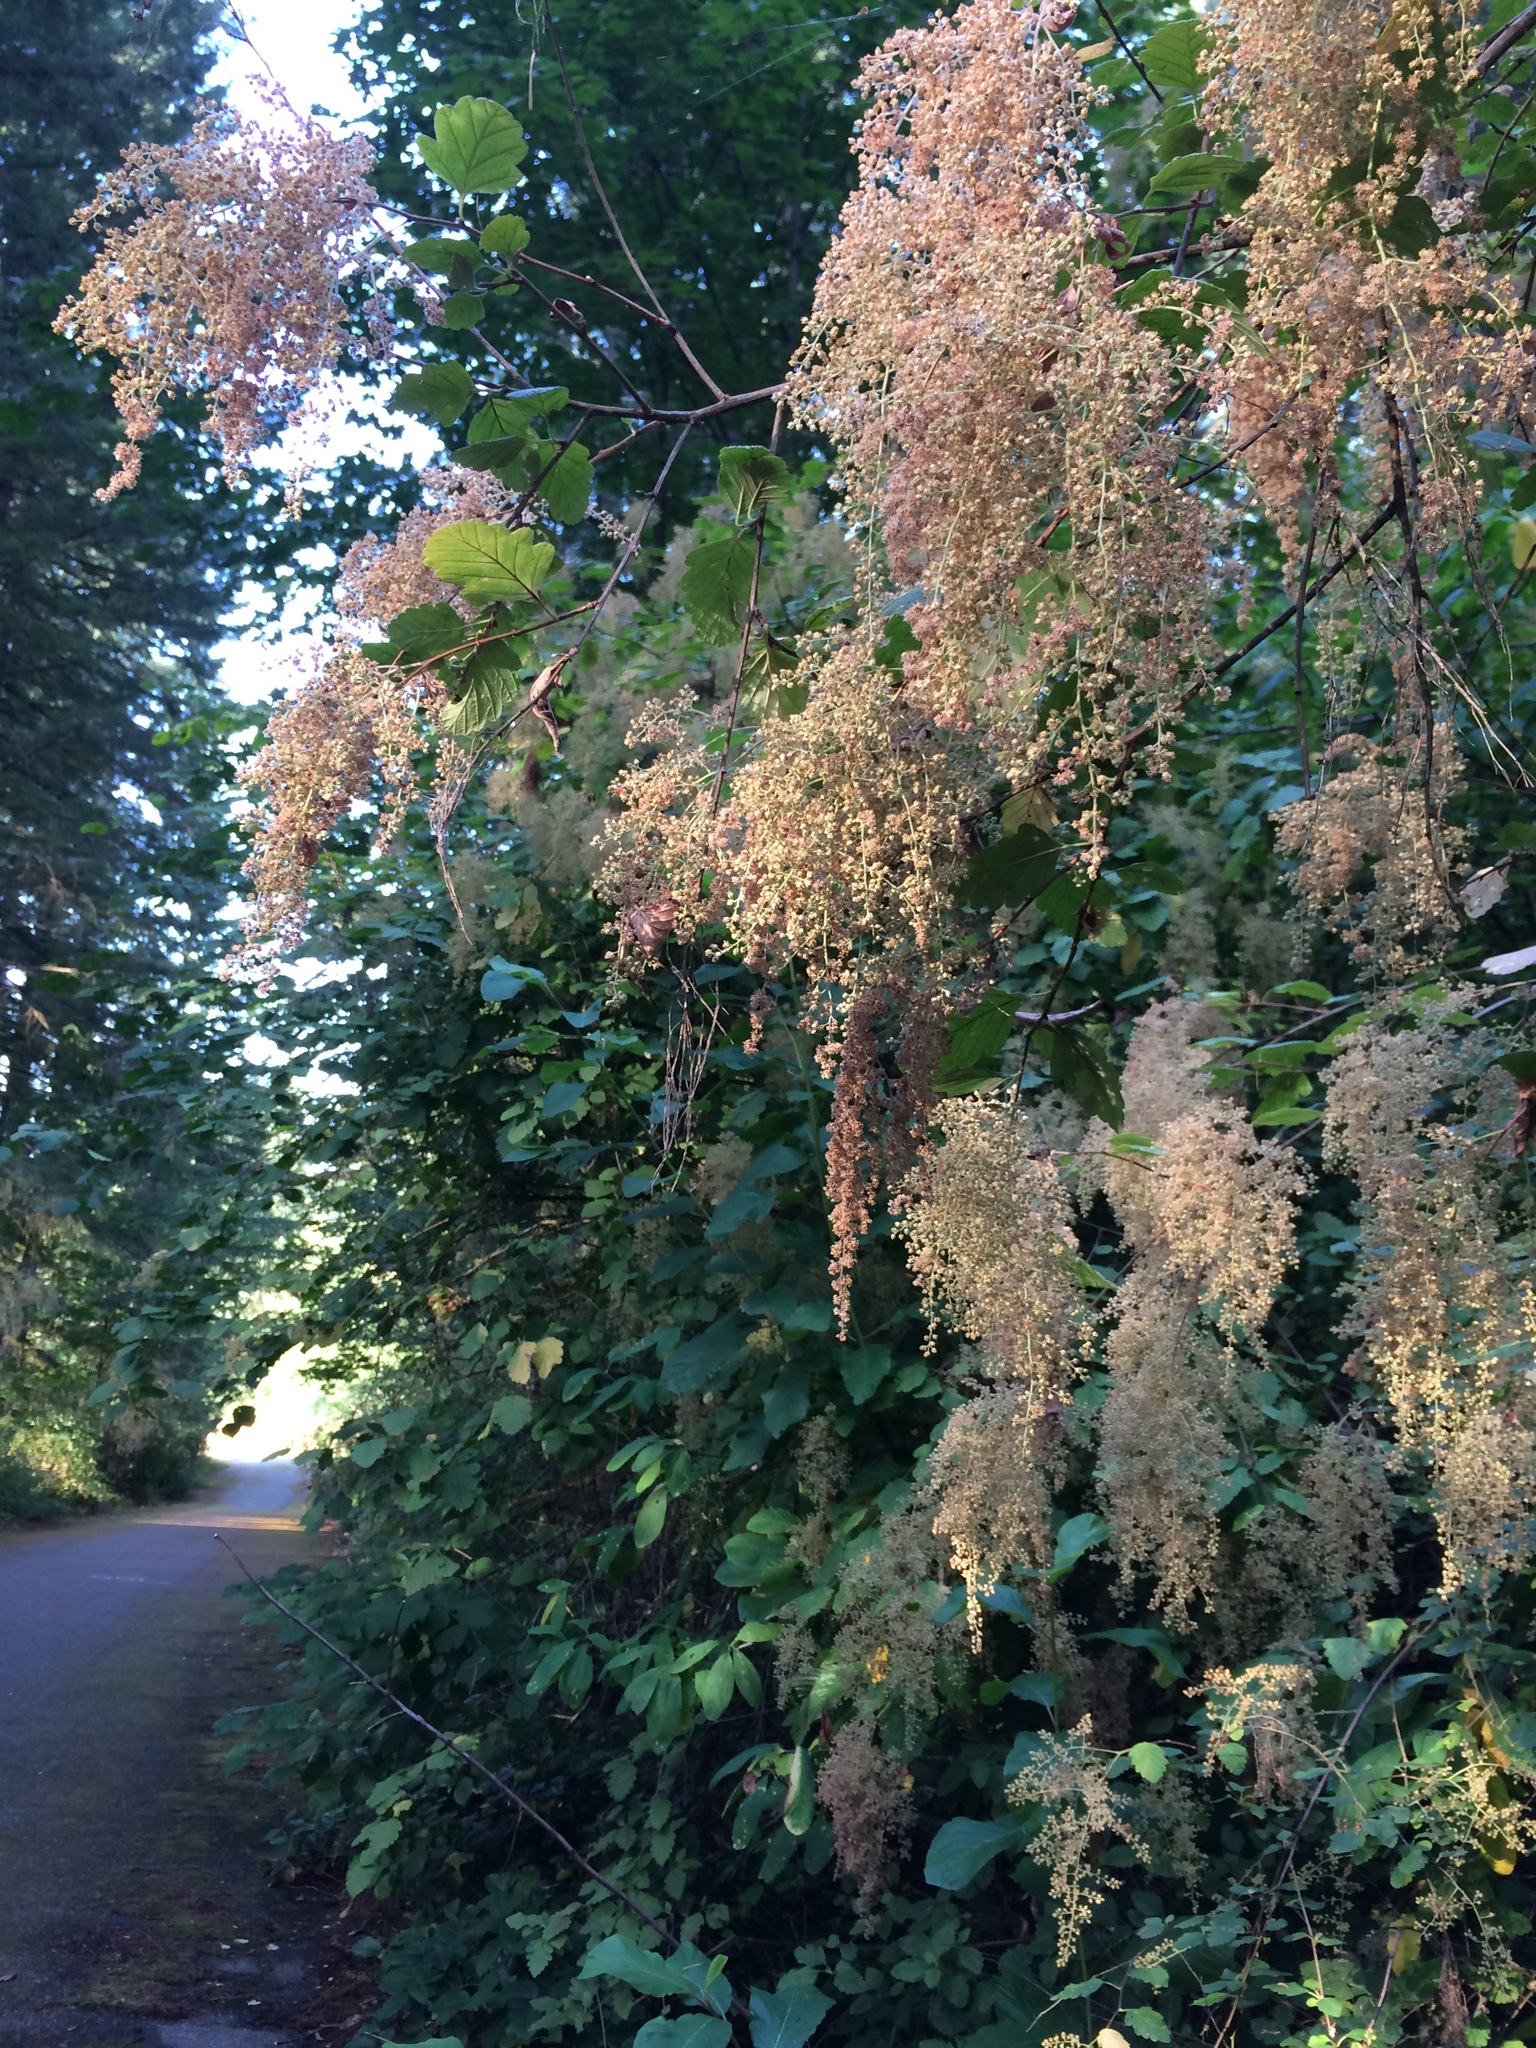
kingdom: Plantae
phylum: Tracheophyta
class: Magnoliopsida
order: Rosales
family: Rosaceae
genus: Holodiscus
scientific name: Holodiscus discolor
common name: Oceanspray
